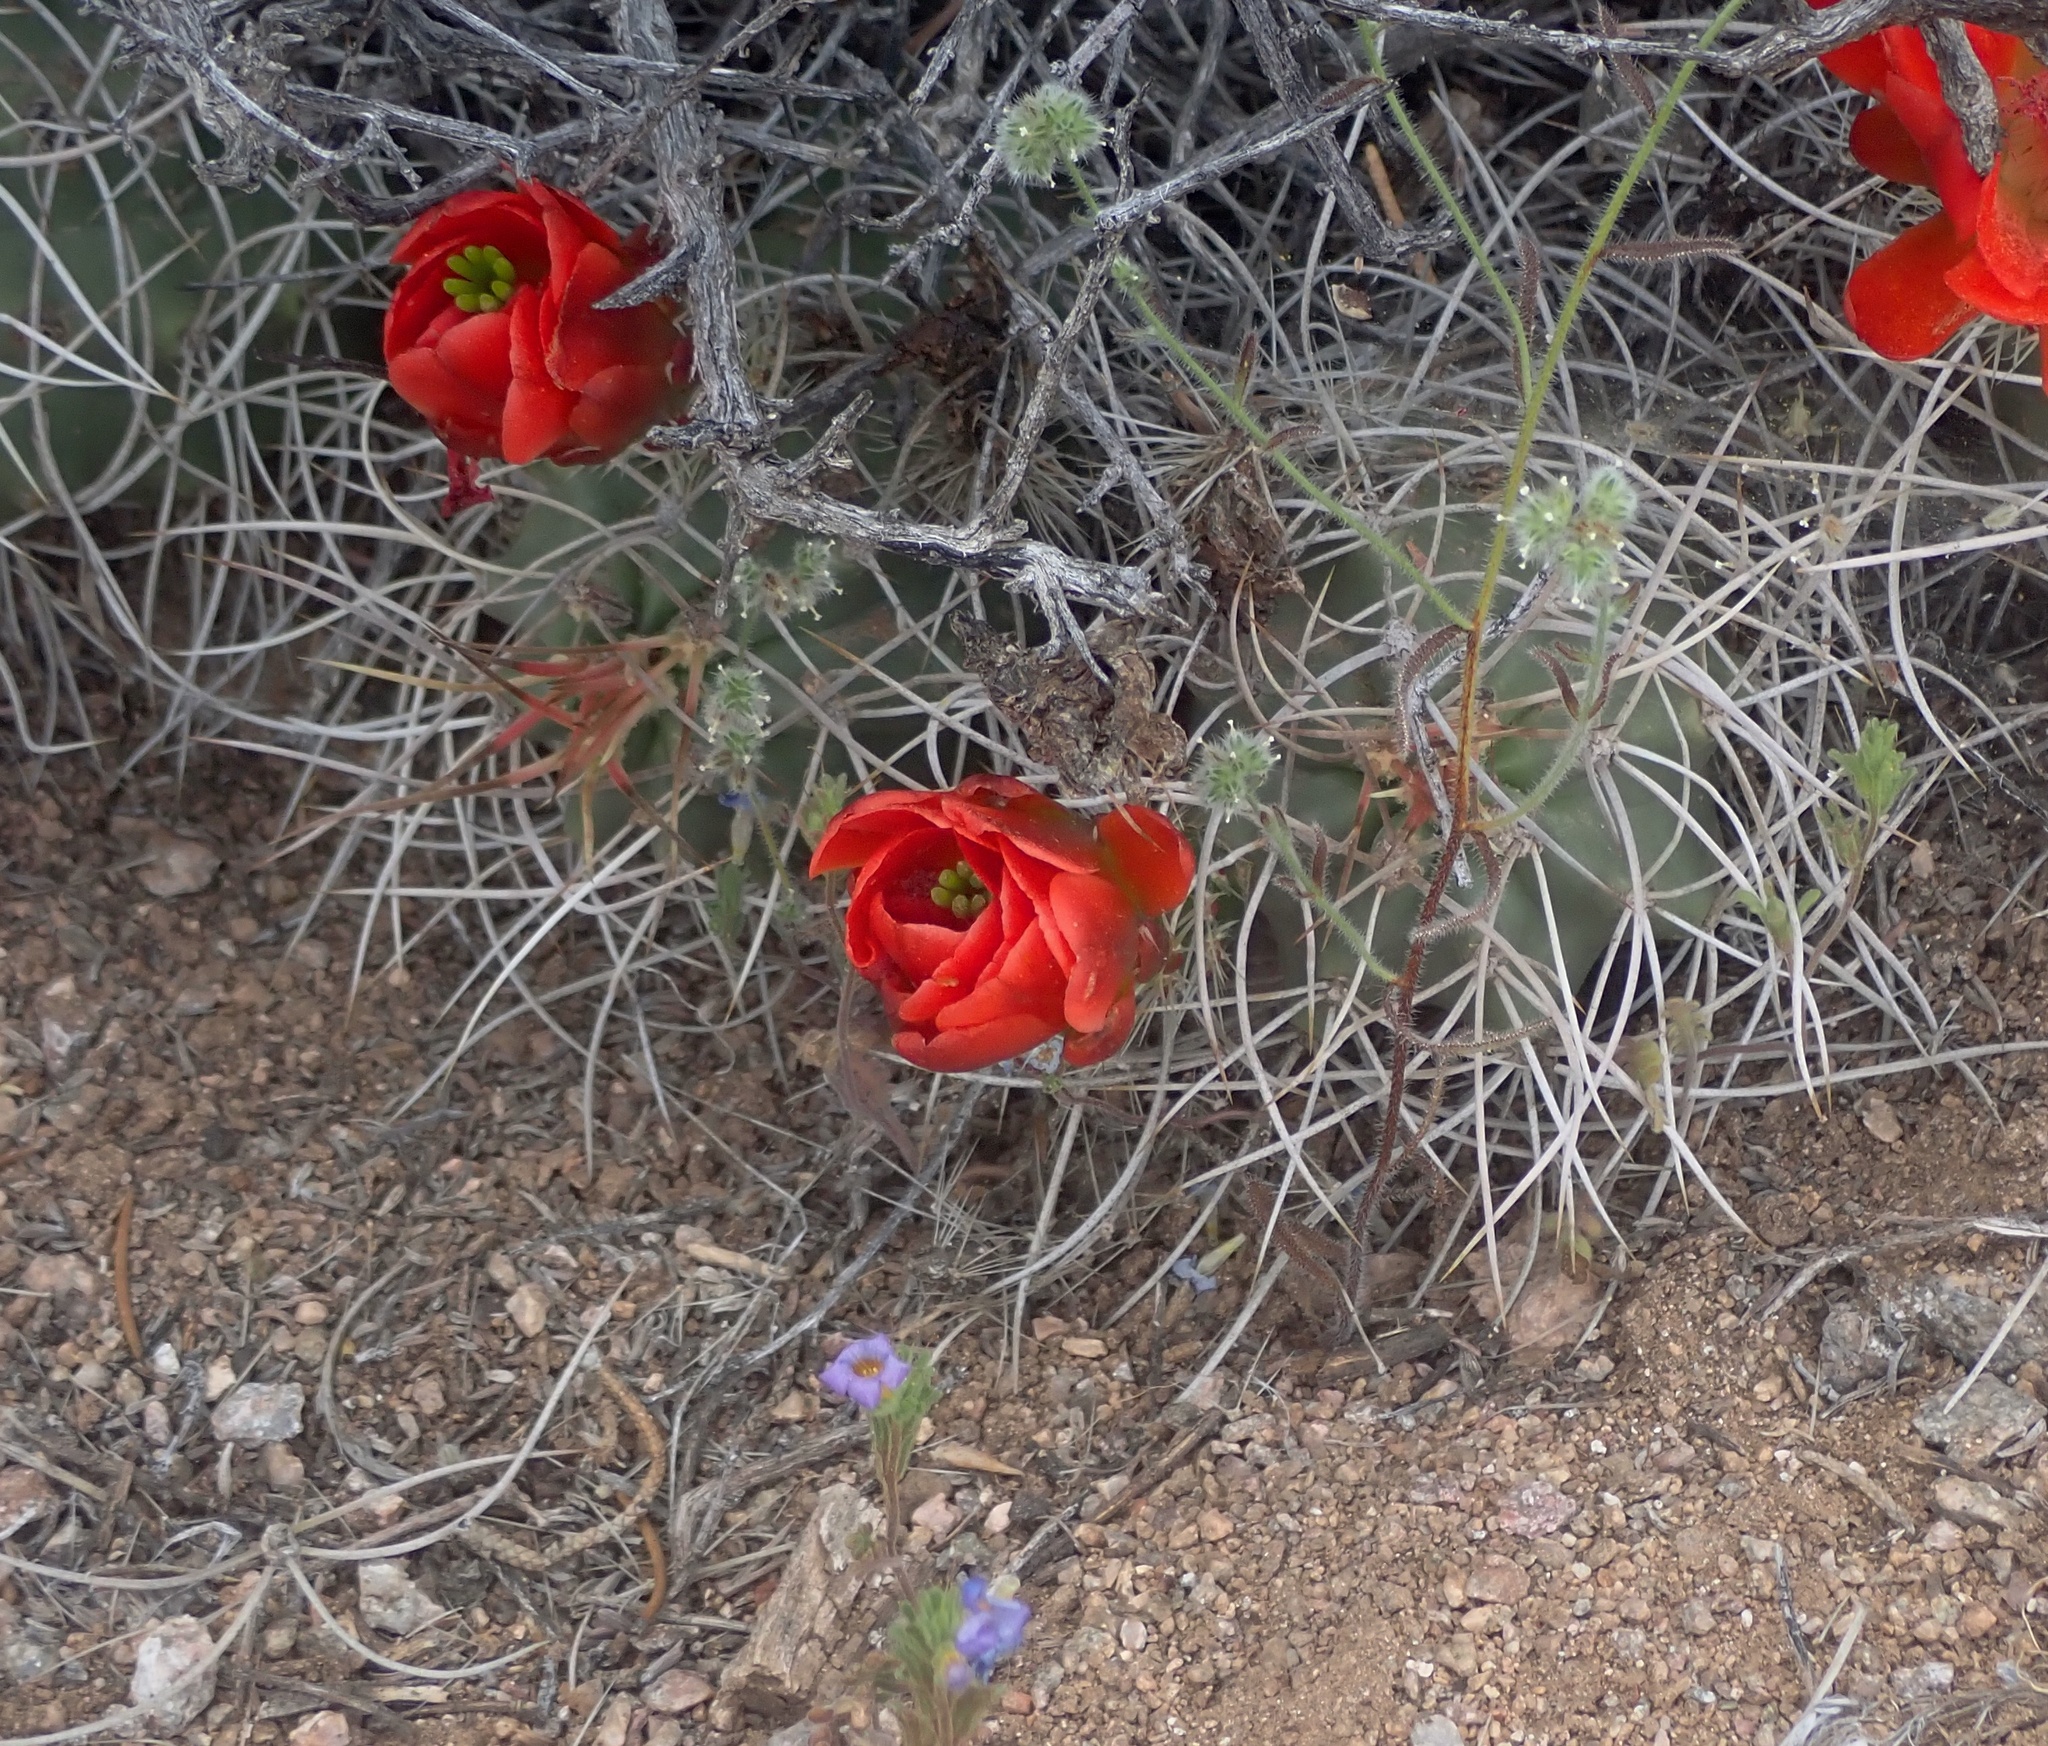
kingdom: Plantae
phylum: Tracheophyta
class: Magnoliopsida
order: Caryophyllales
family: Cactaceae
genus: Echinocereus
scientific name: Echinocereus triglochidiatus
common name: Claretcup hedgehog
